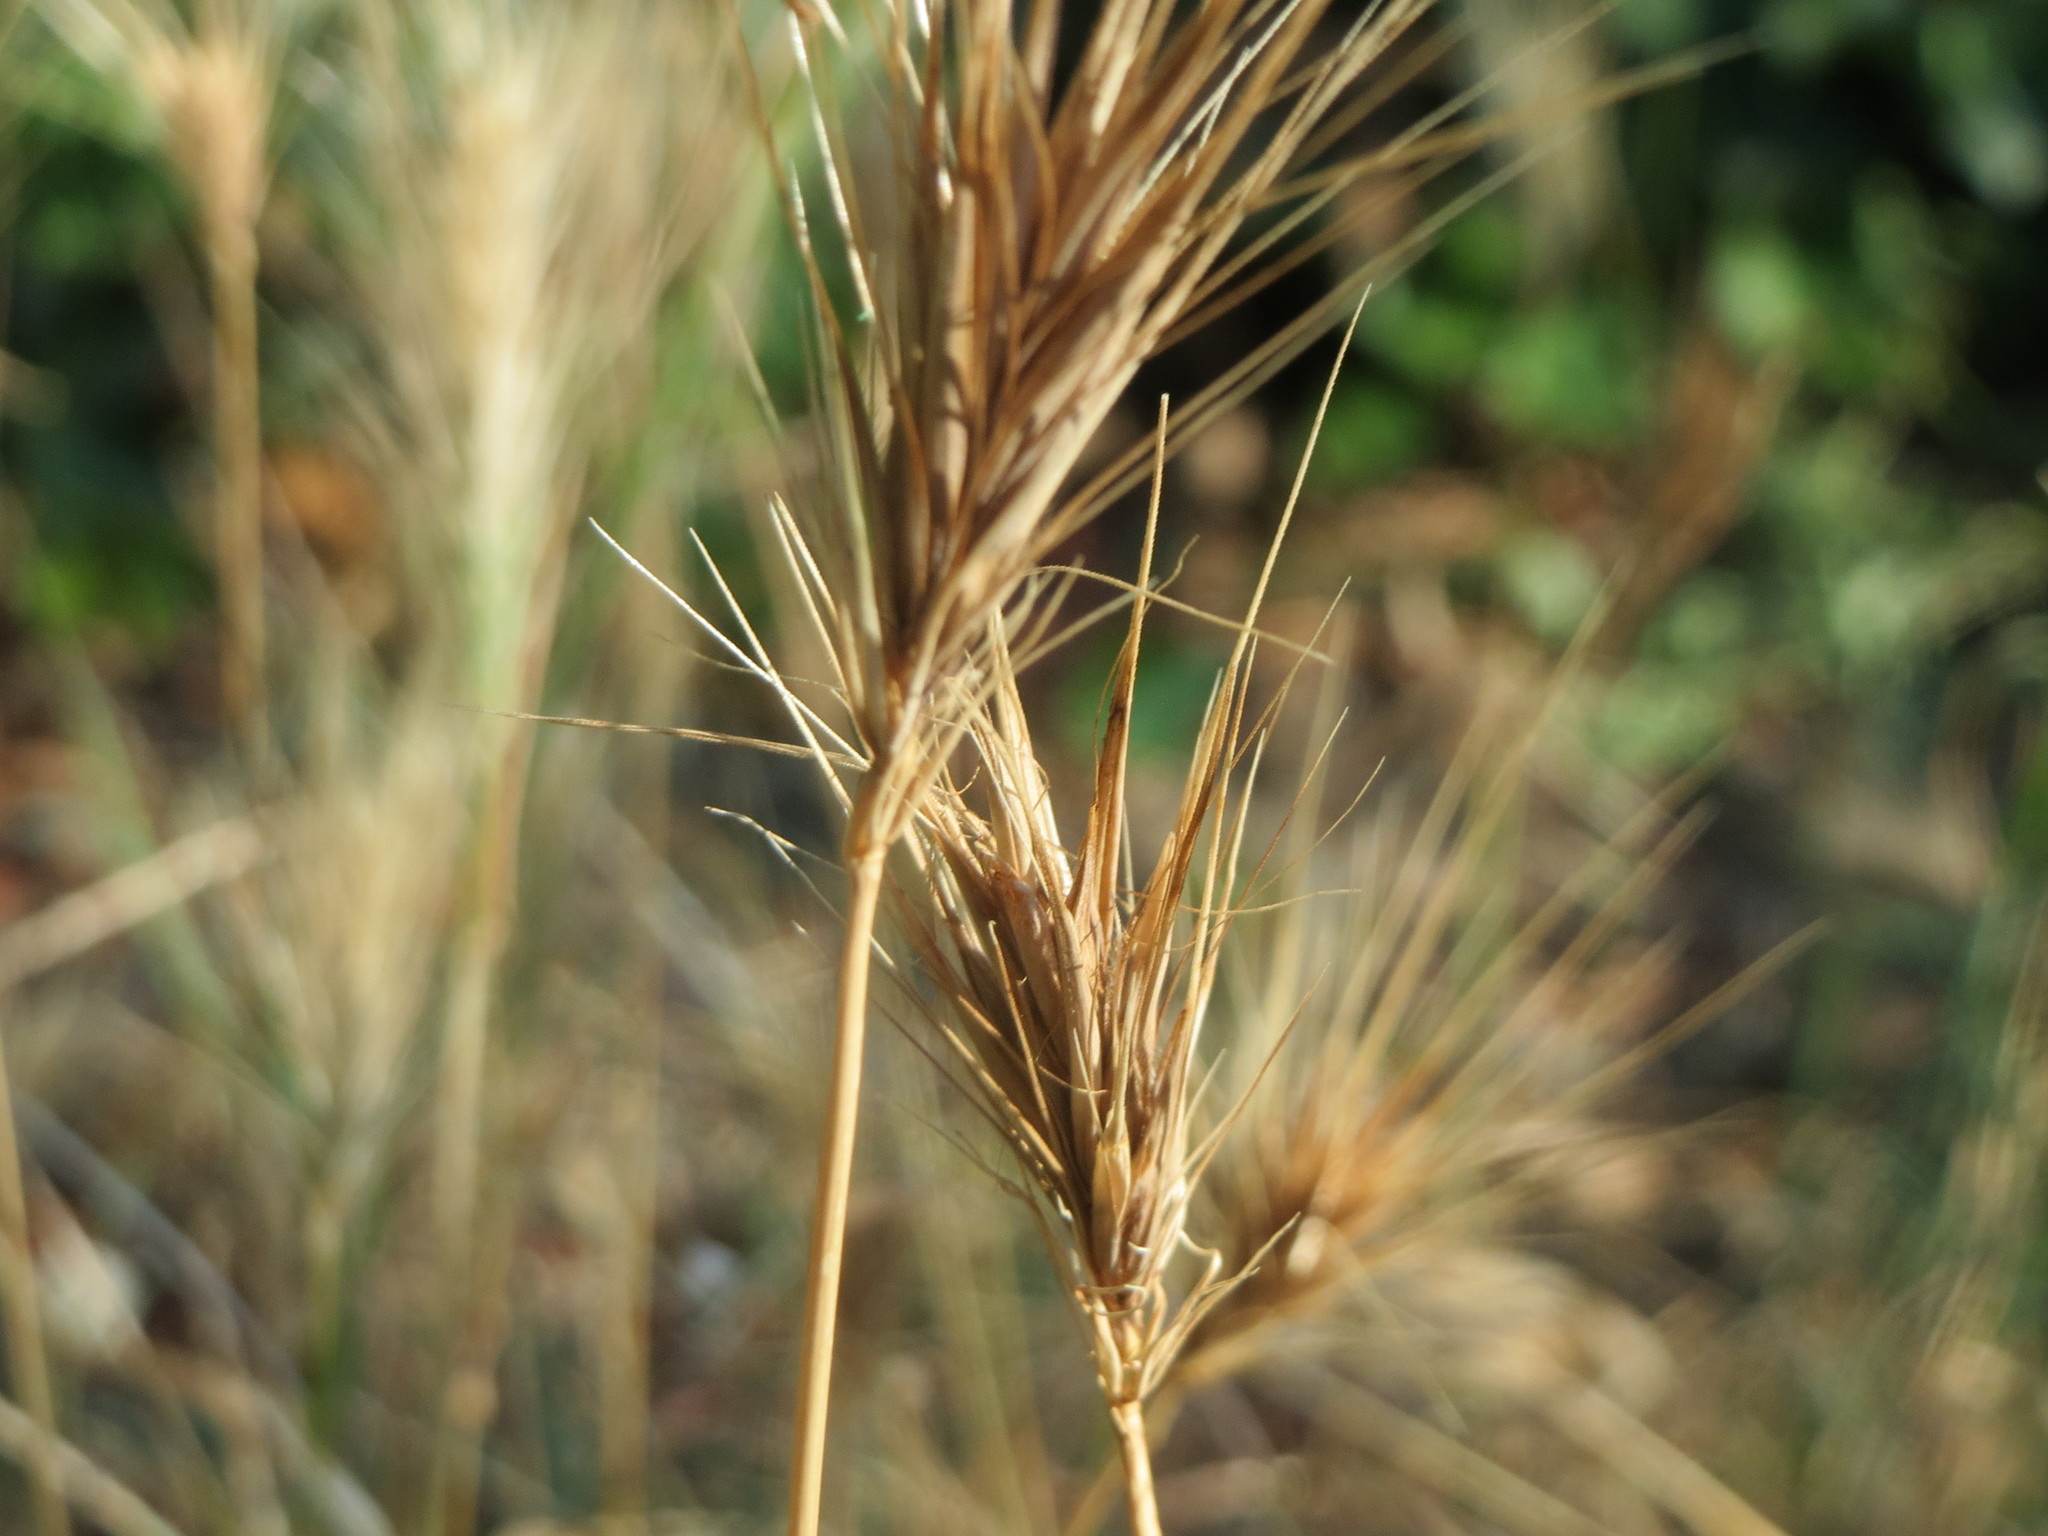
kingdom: Plantae
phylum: Tracheophyta
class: Liliopsida
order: Poales
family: Poaceae
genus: Hordeum
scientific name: Hordeum murinum
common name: Wall barley
